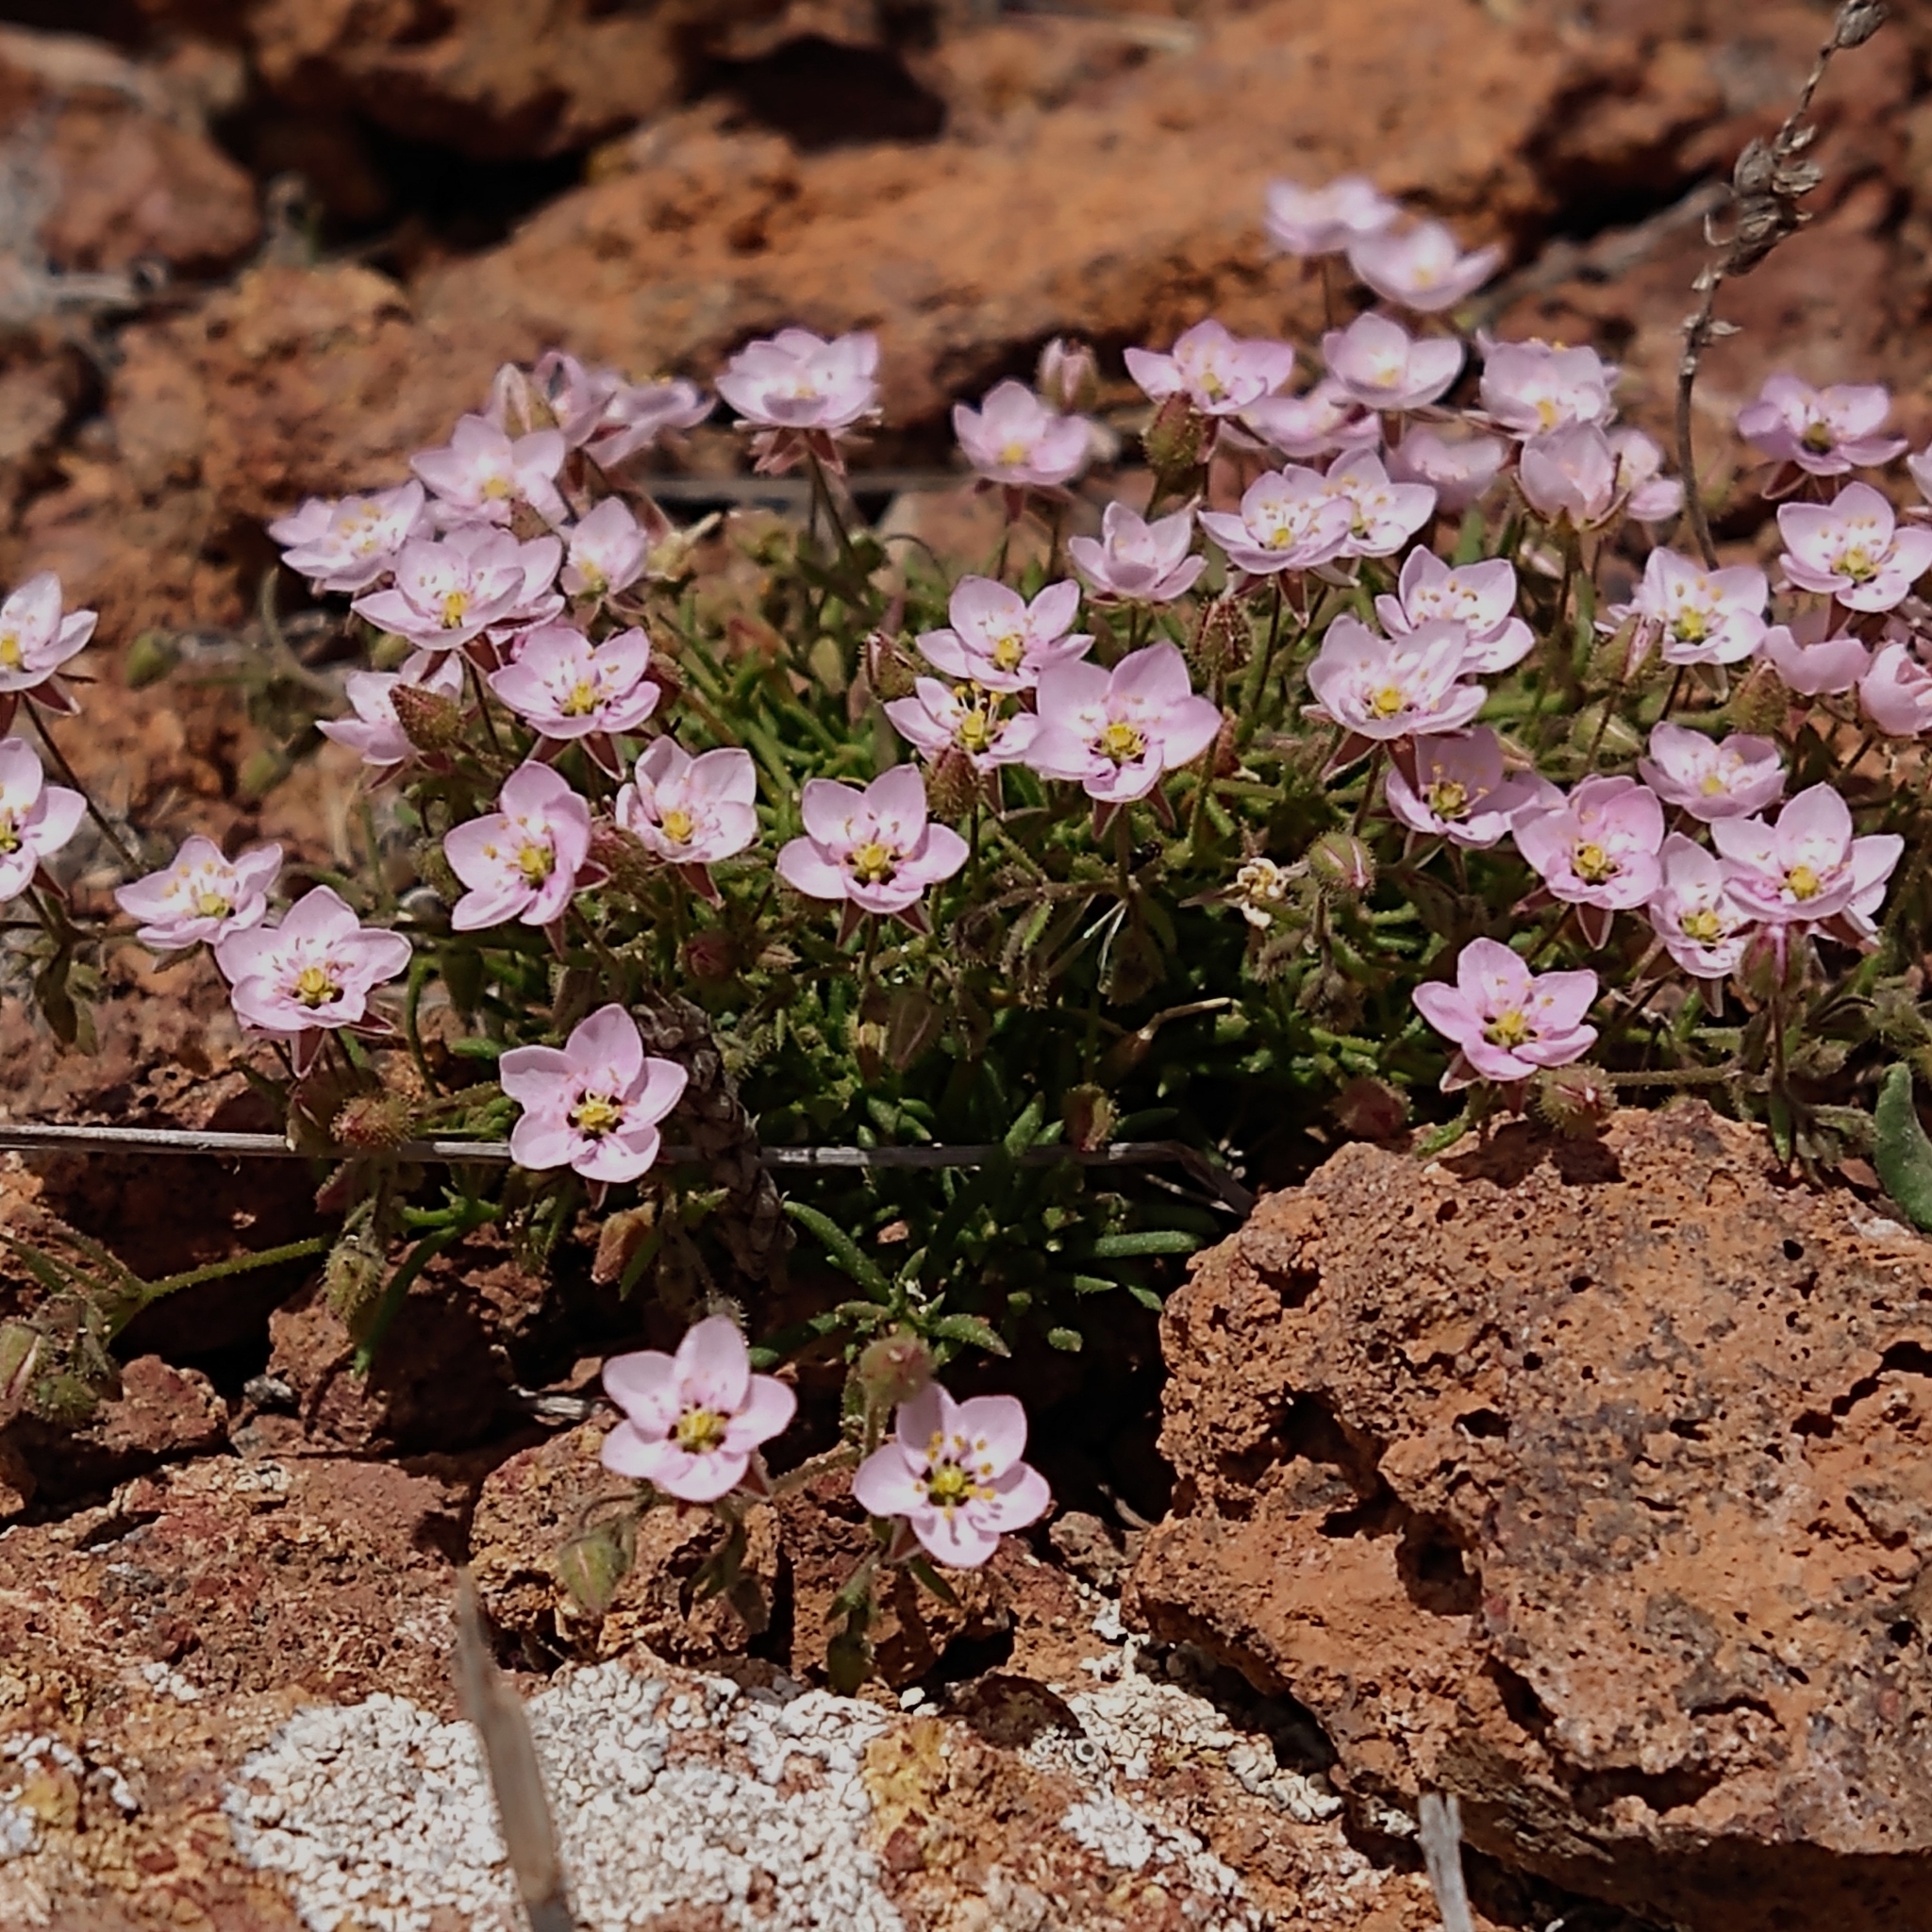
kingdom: Plantae
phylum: Tracheophyta
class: Magnoliopsida
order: Caryophyllales
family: Caryophyllaceae
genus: Spergularia
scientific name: Spergularia fimbriata
